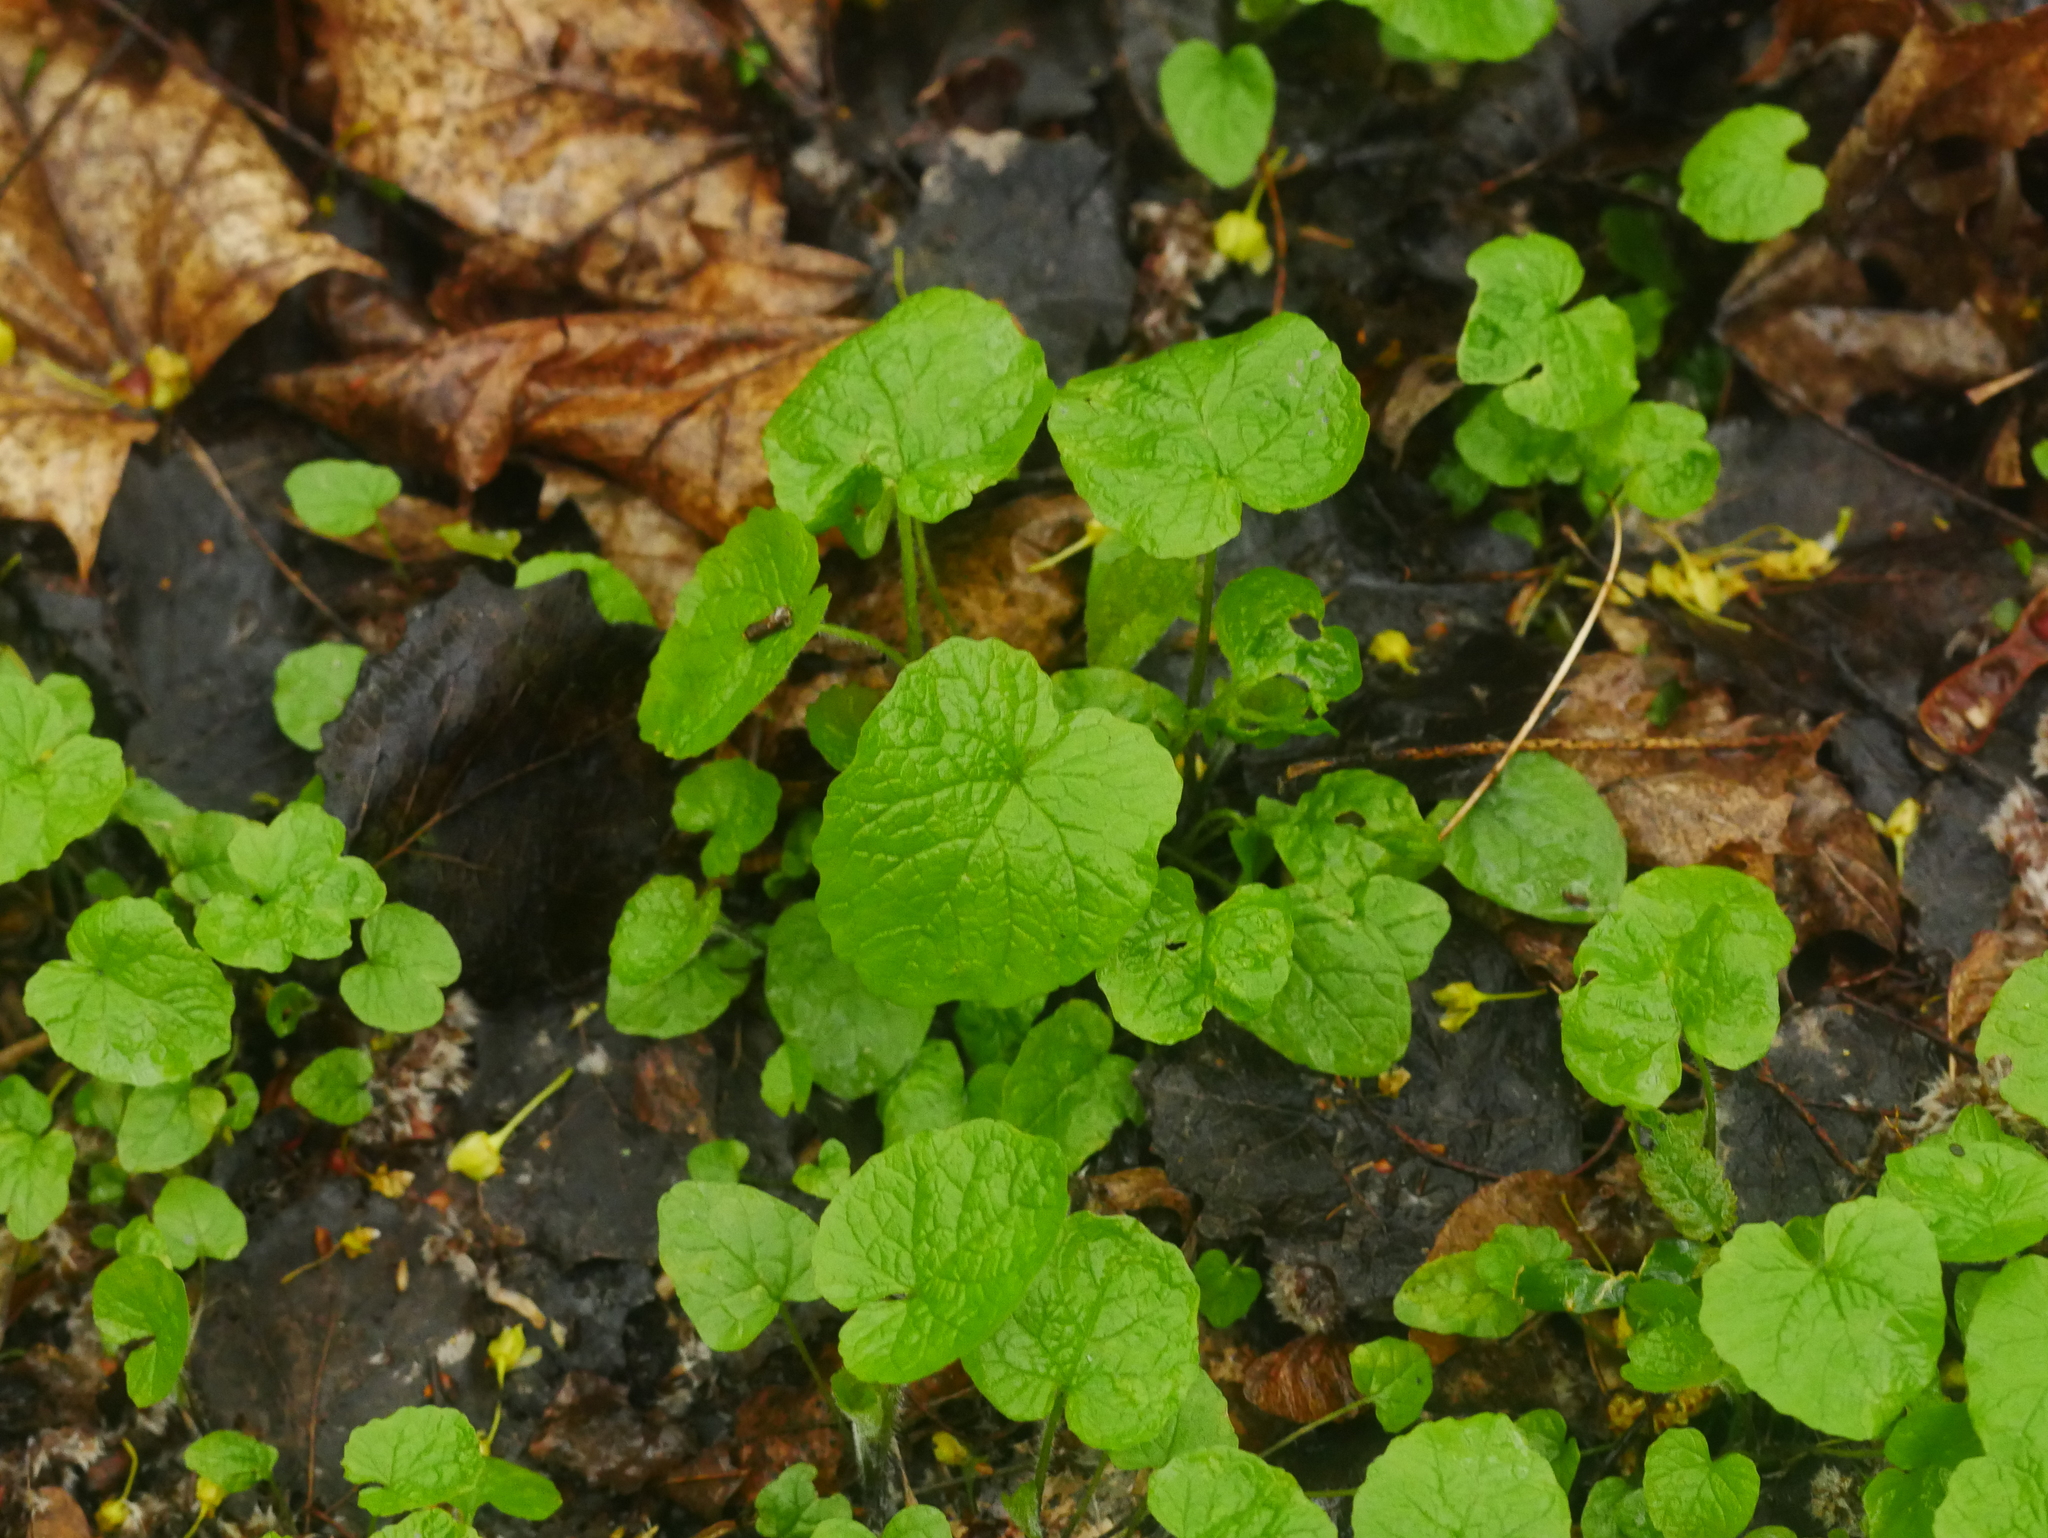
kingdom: Plantae
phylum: Tracheophyta
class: Magnoliopsida
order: Brassicales
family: Brassicaceae
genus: Alliaria
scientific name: Alliaria petiolata
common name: Garlic mustard
